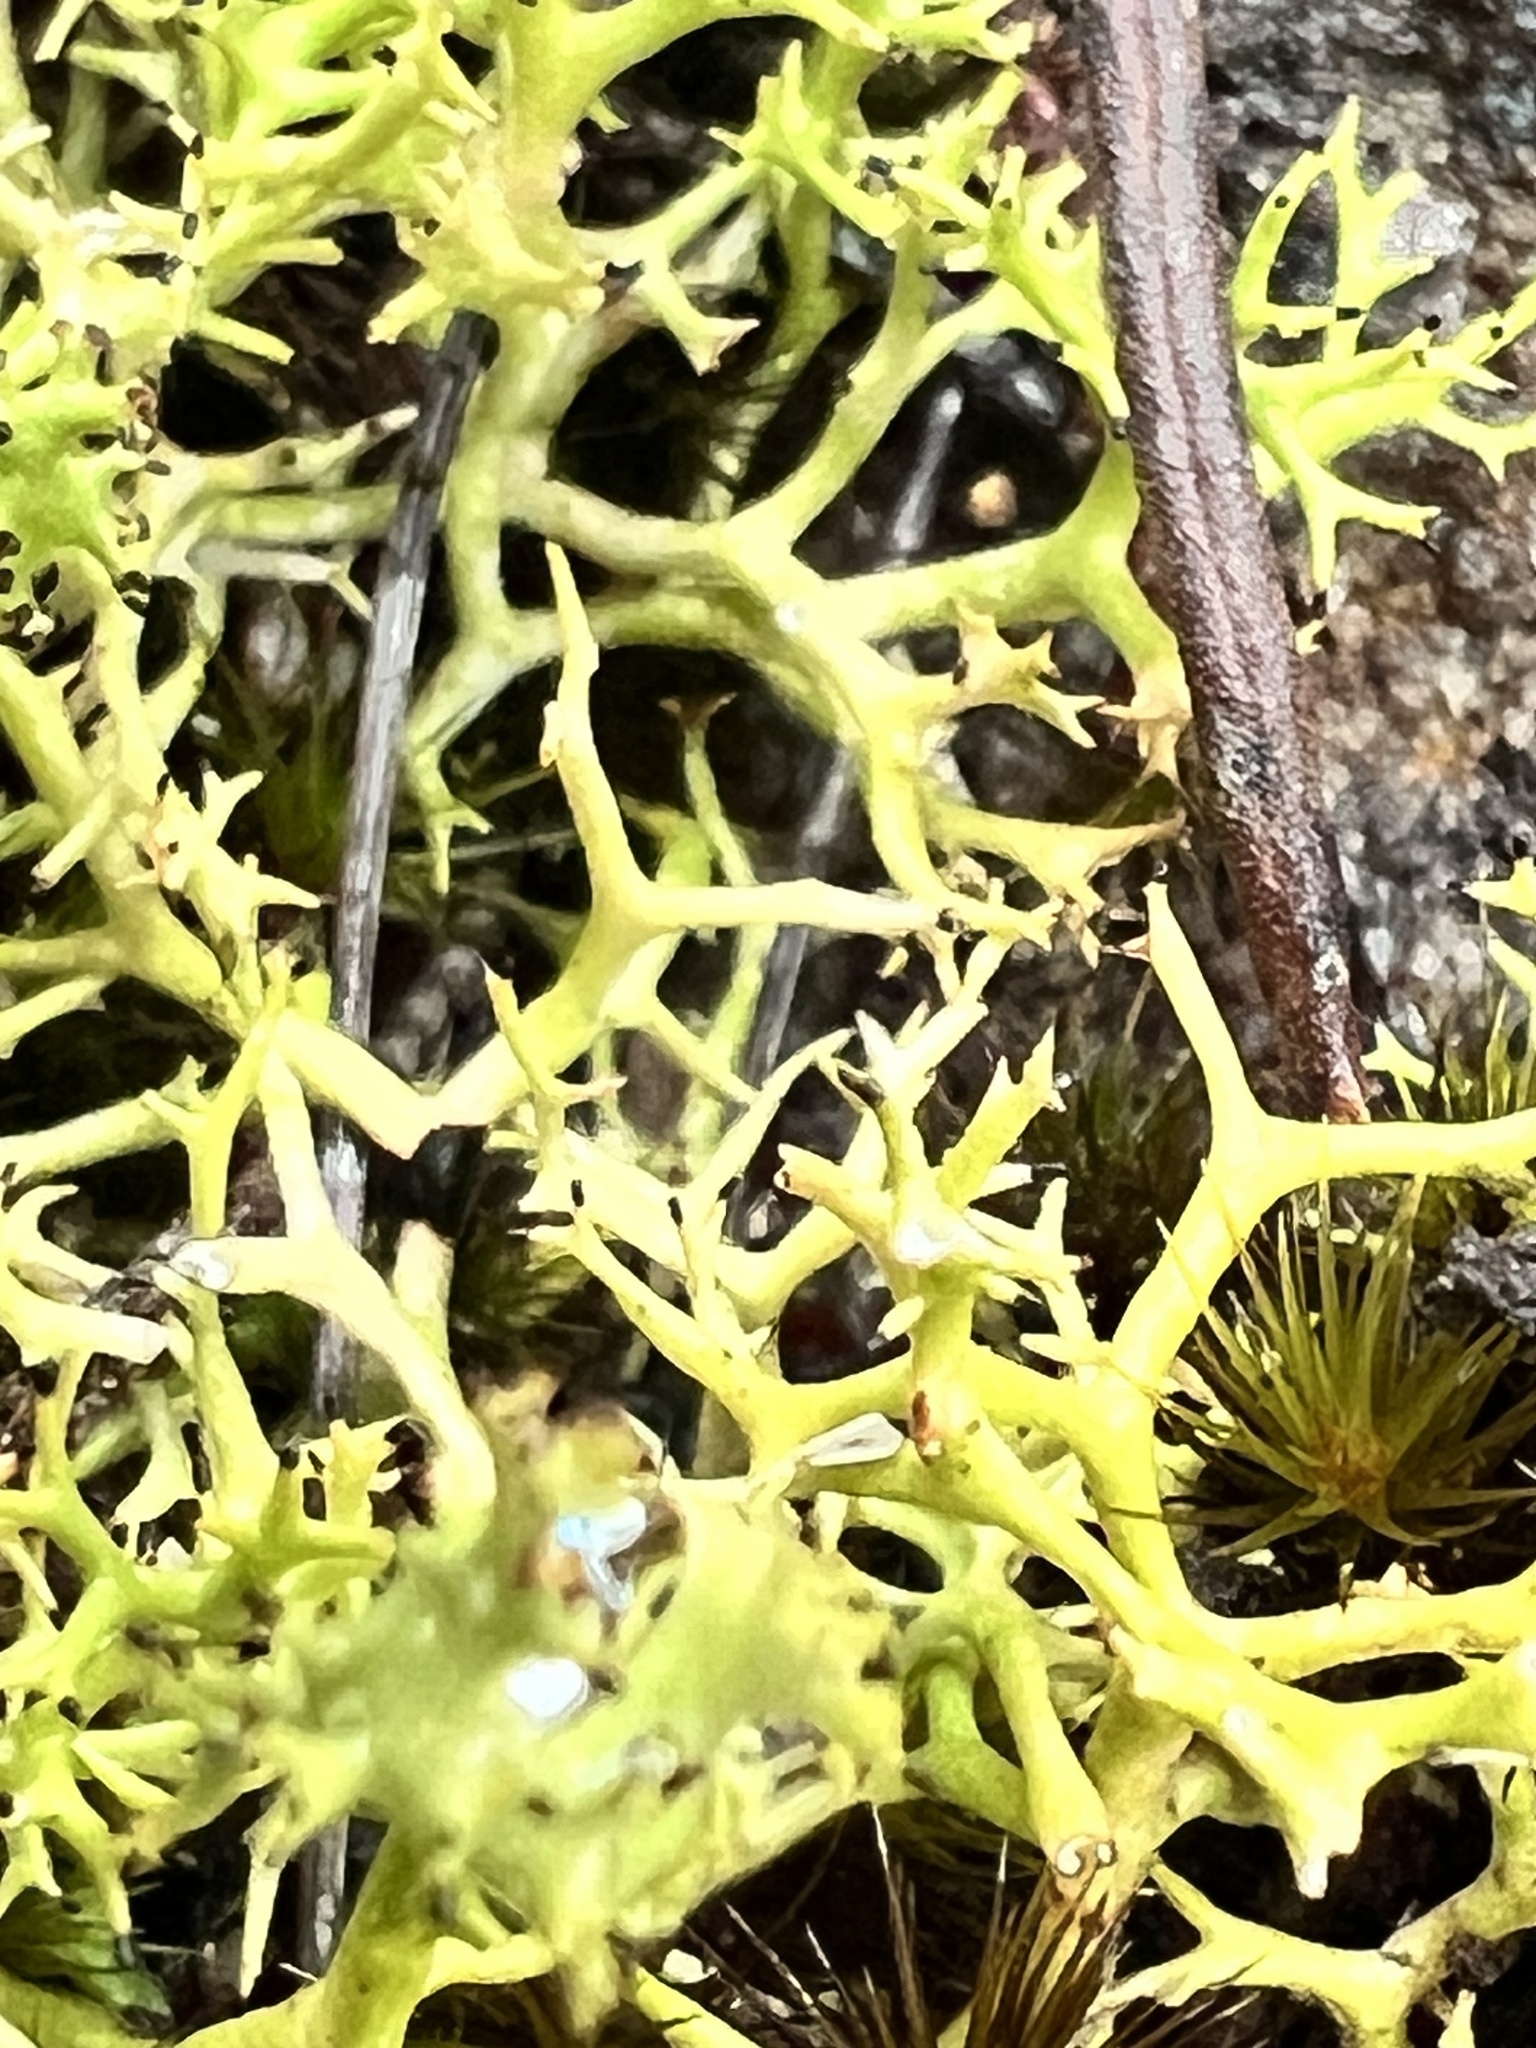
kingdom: Fungi
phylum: Ascomycota
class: Lecanoromycetes
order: Lecanorales
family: Cladoniaceae
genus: Cladia
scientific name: Cladia aggregata
